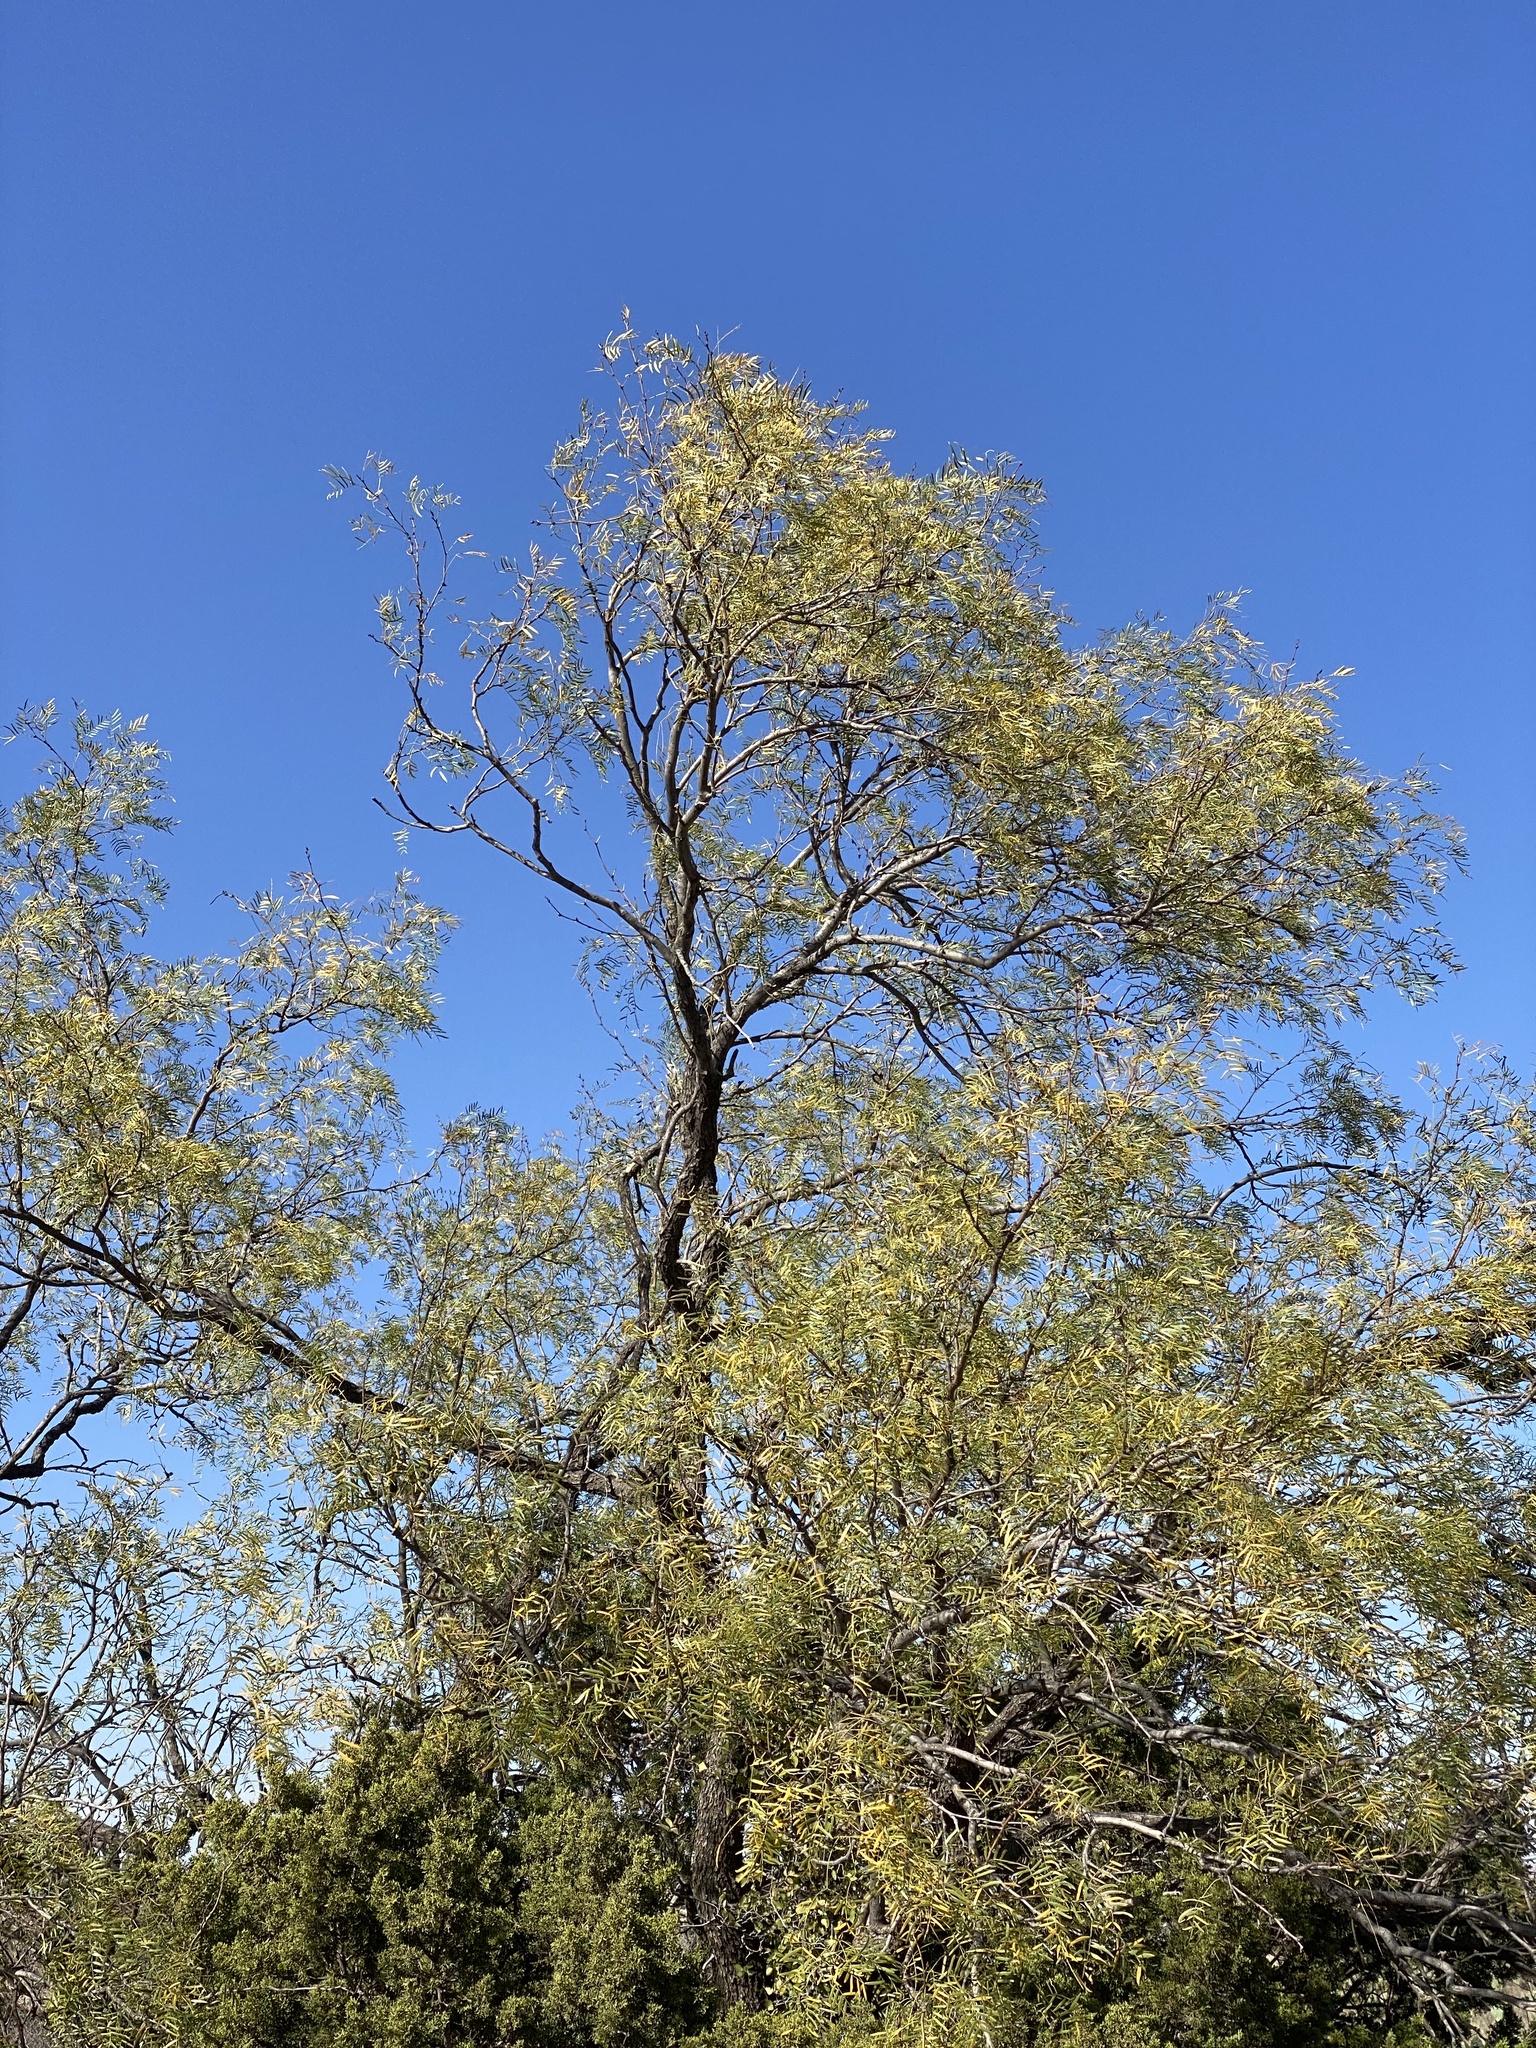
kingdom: Plantae
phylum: Tracheophyta
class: Magnoliopsida
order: Fabales
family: Fabaceae
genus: Prosopis
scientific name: Prosopis glandulosa
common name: Honey mesquite
